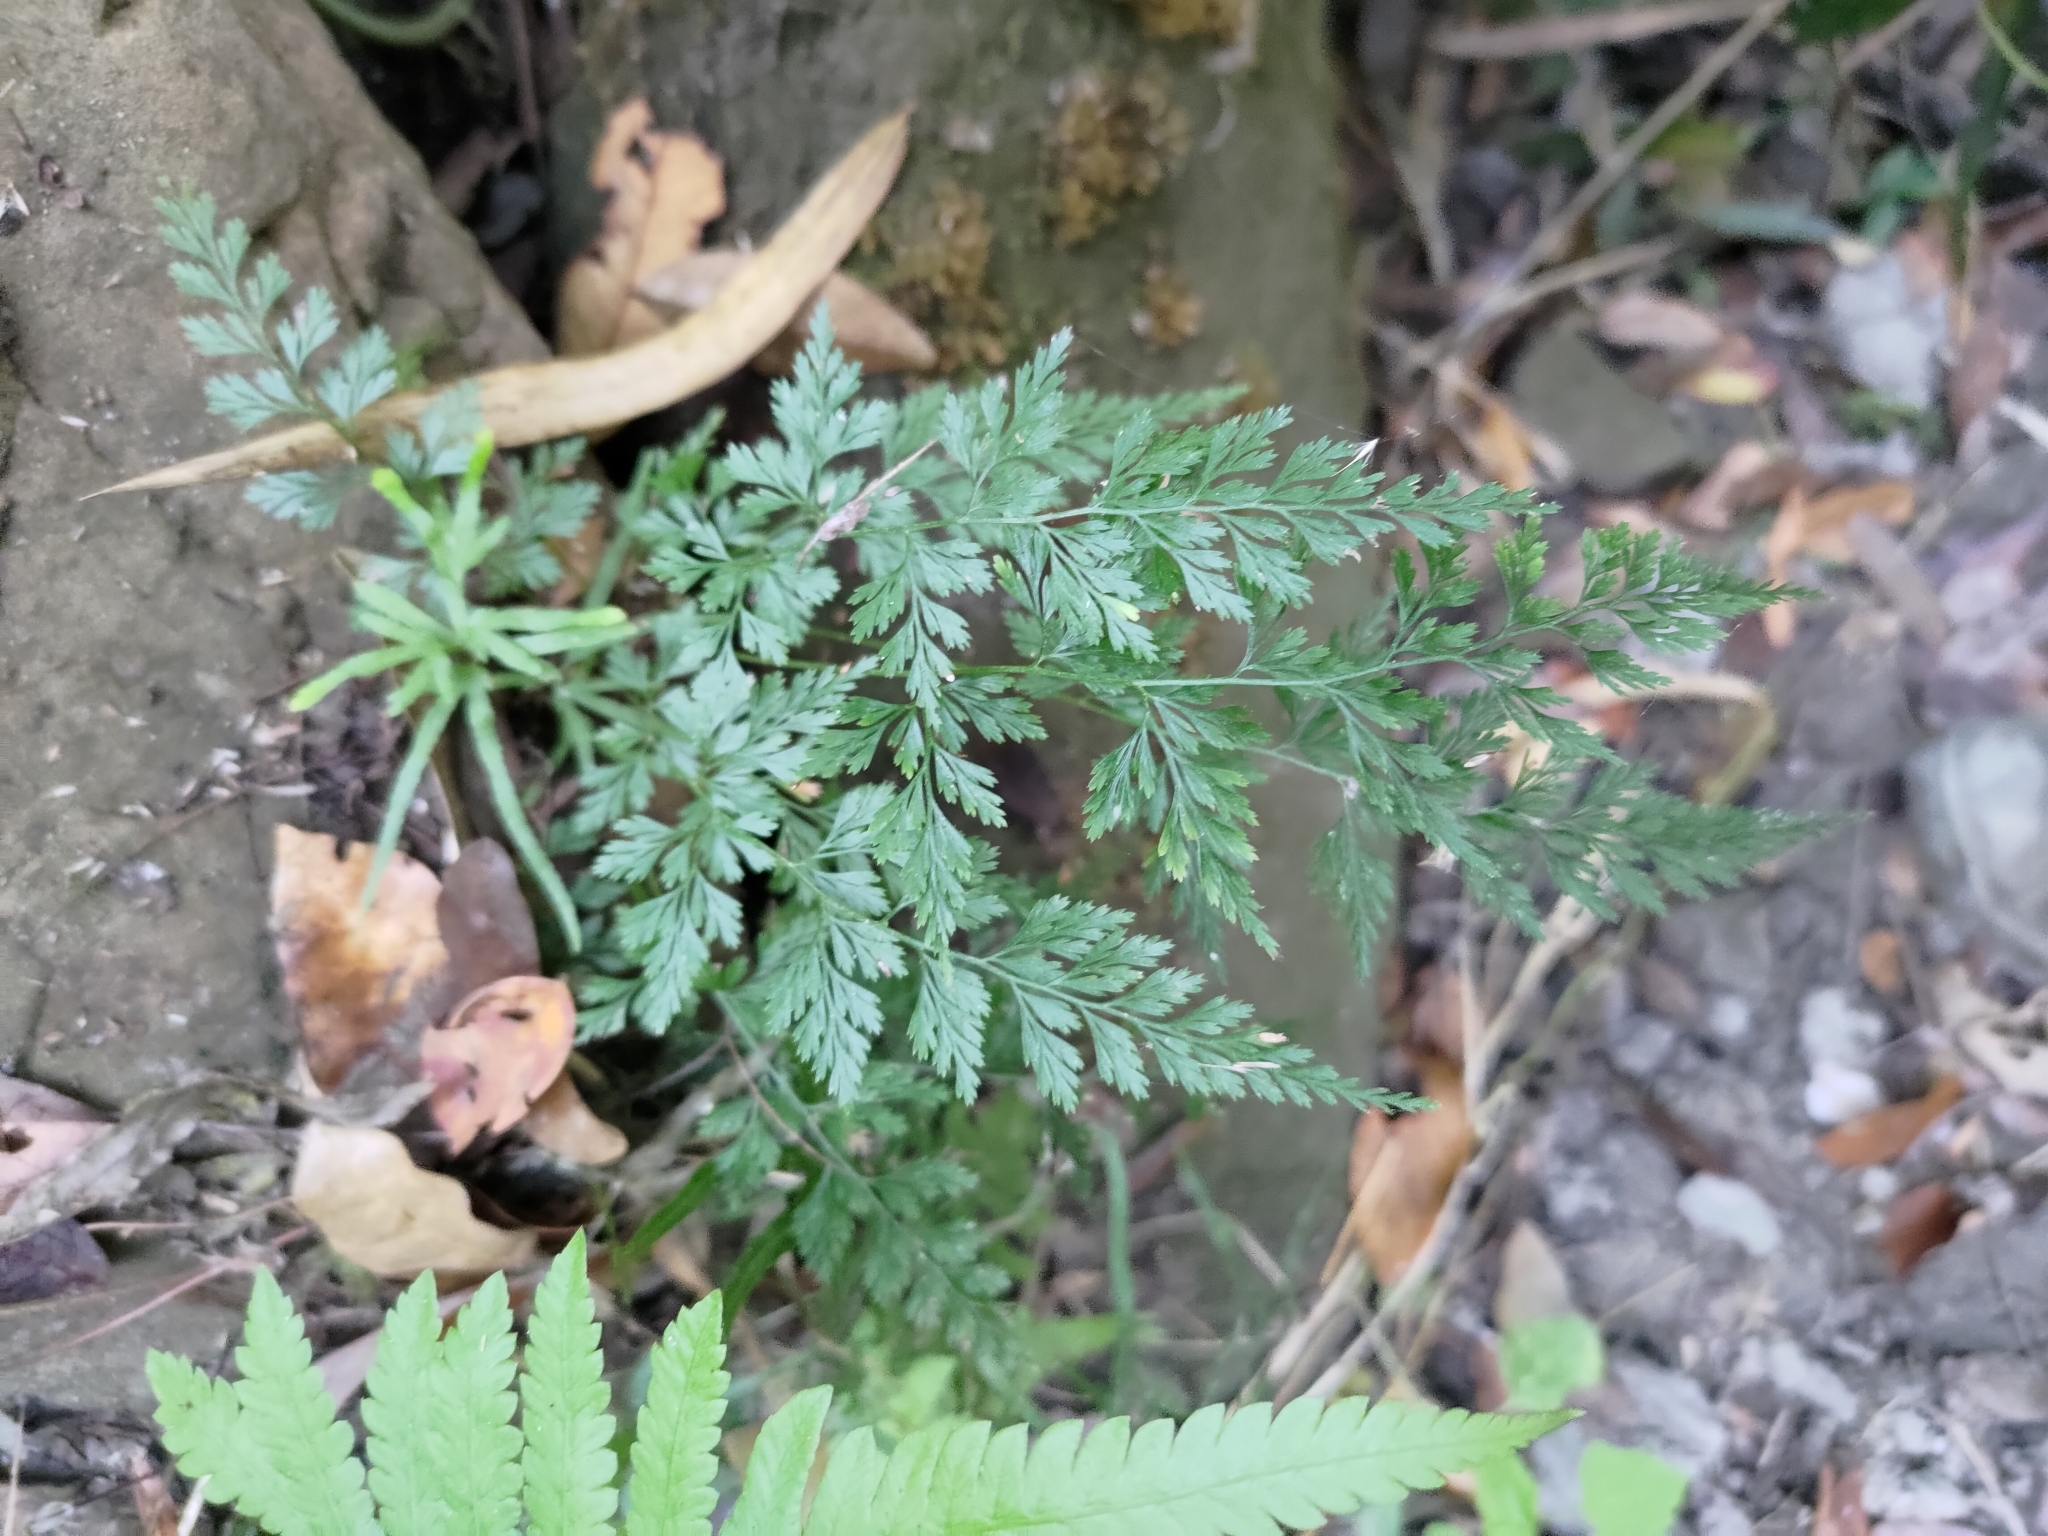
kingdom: Plantae
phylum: Tracheophyta
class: Polypodiopsida
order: Polypodiales
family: Pteridaceae
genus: Onychium
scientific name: Onychium japonicum
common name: Carrot fern
